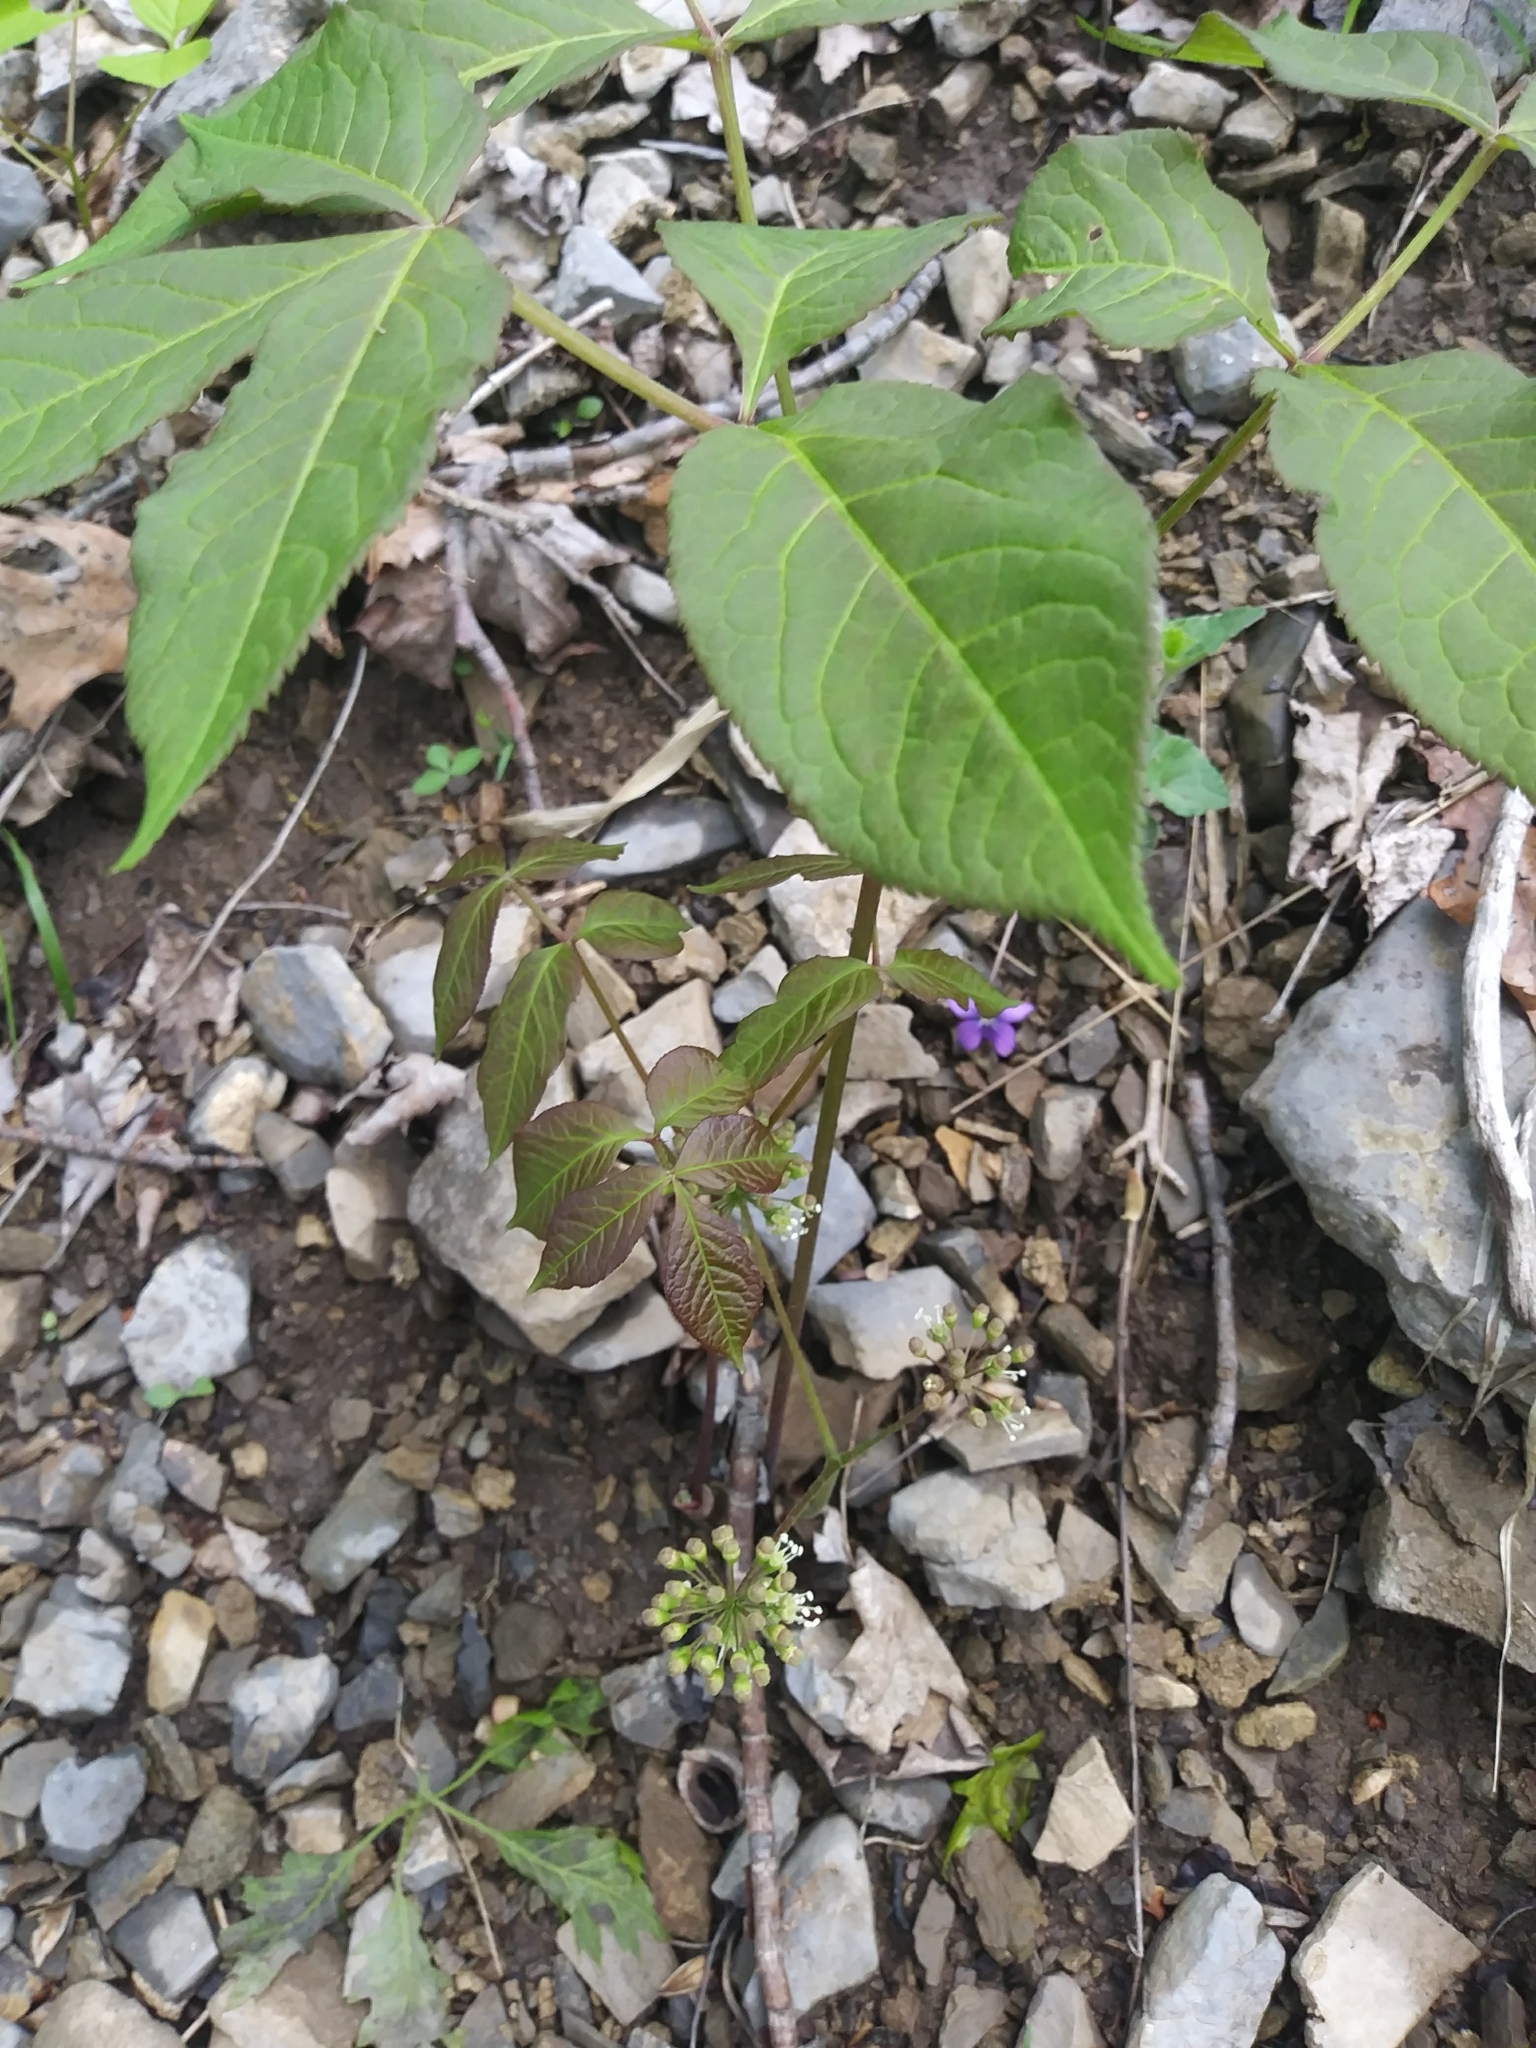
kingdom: Plantae
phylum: Tracheophyta
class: Magnoliopsida
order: Apiales
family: Araliaceae
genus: Aralia
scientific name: Aralia nudicaulis
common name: Wild sarsaparilla
